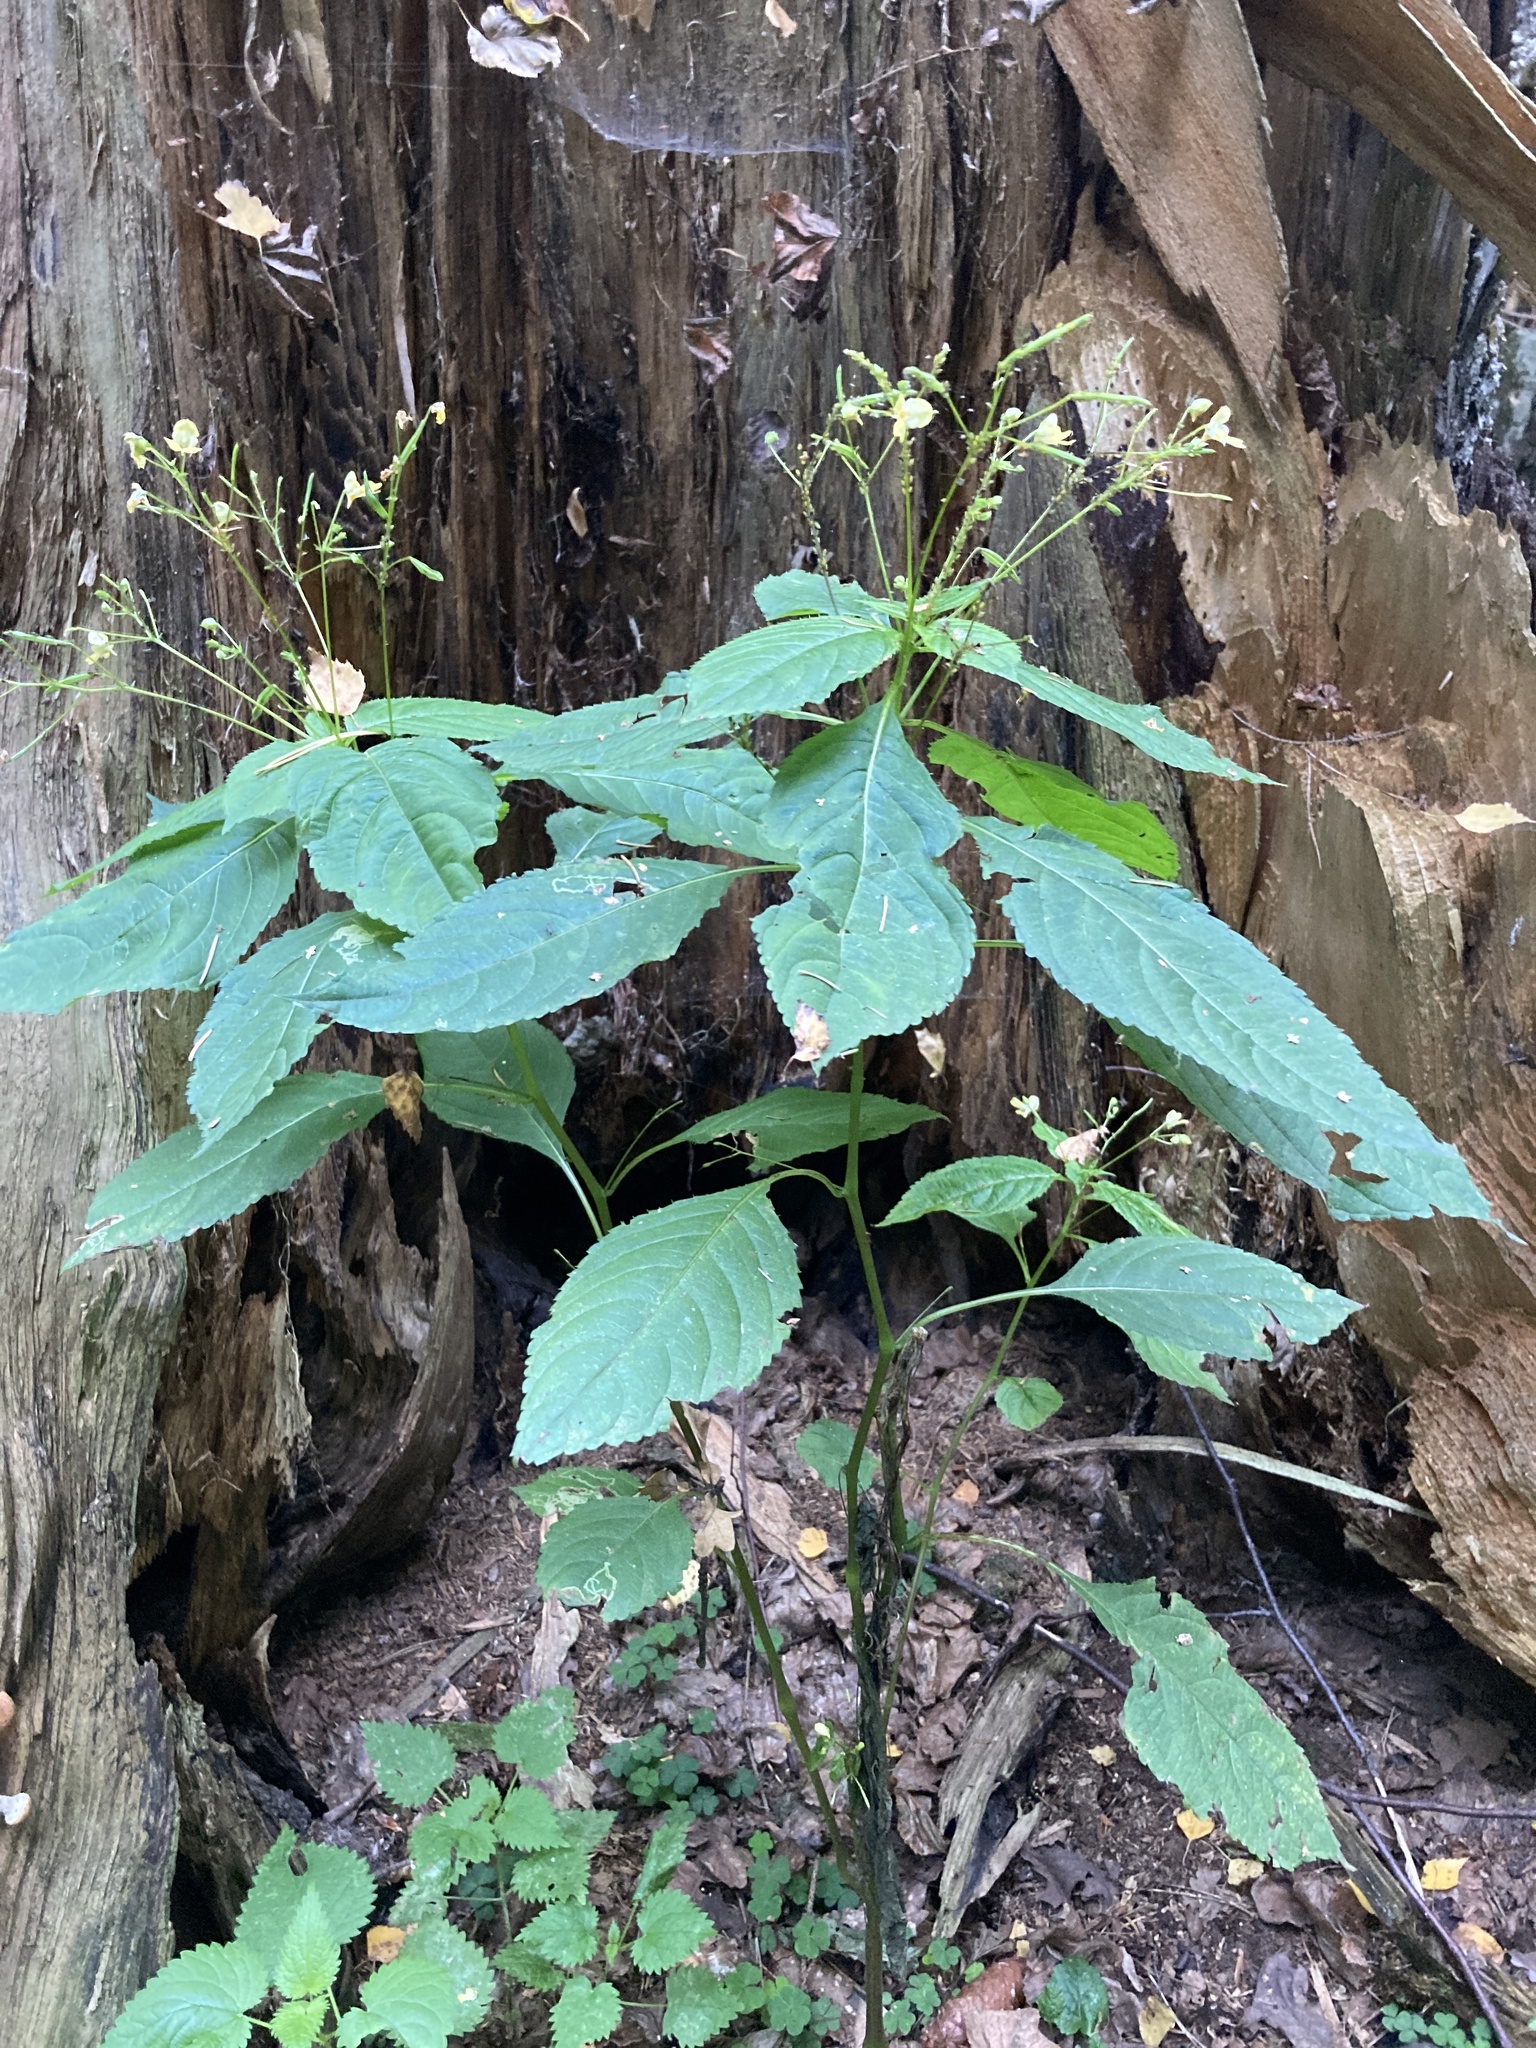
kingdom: Plantae
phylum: Tracheophyta
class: Magnoliopsida
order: Ericales
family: Balsaminaceae
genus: Impatiens
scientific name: Impatiens parviflora
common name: Small balsam
